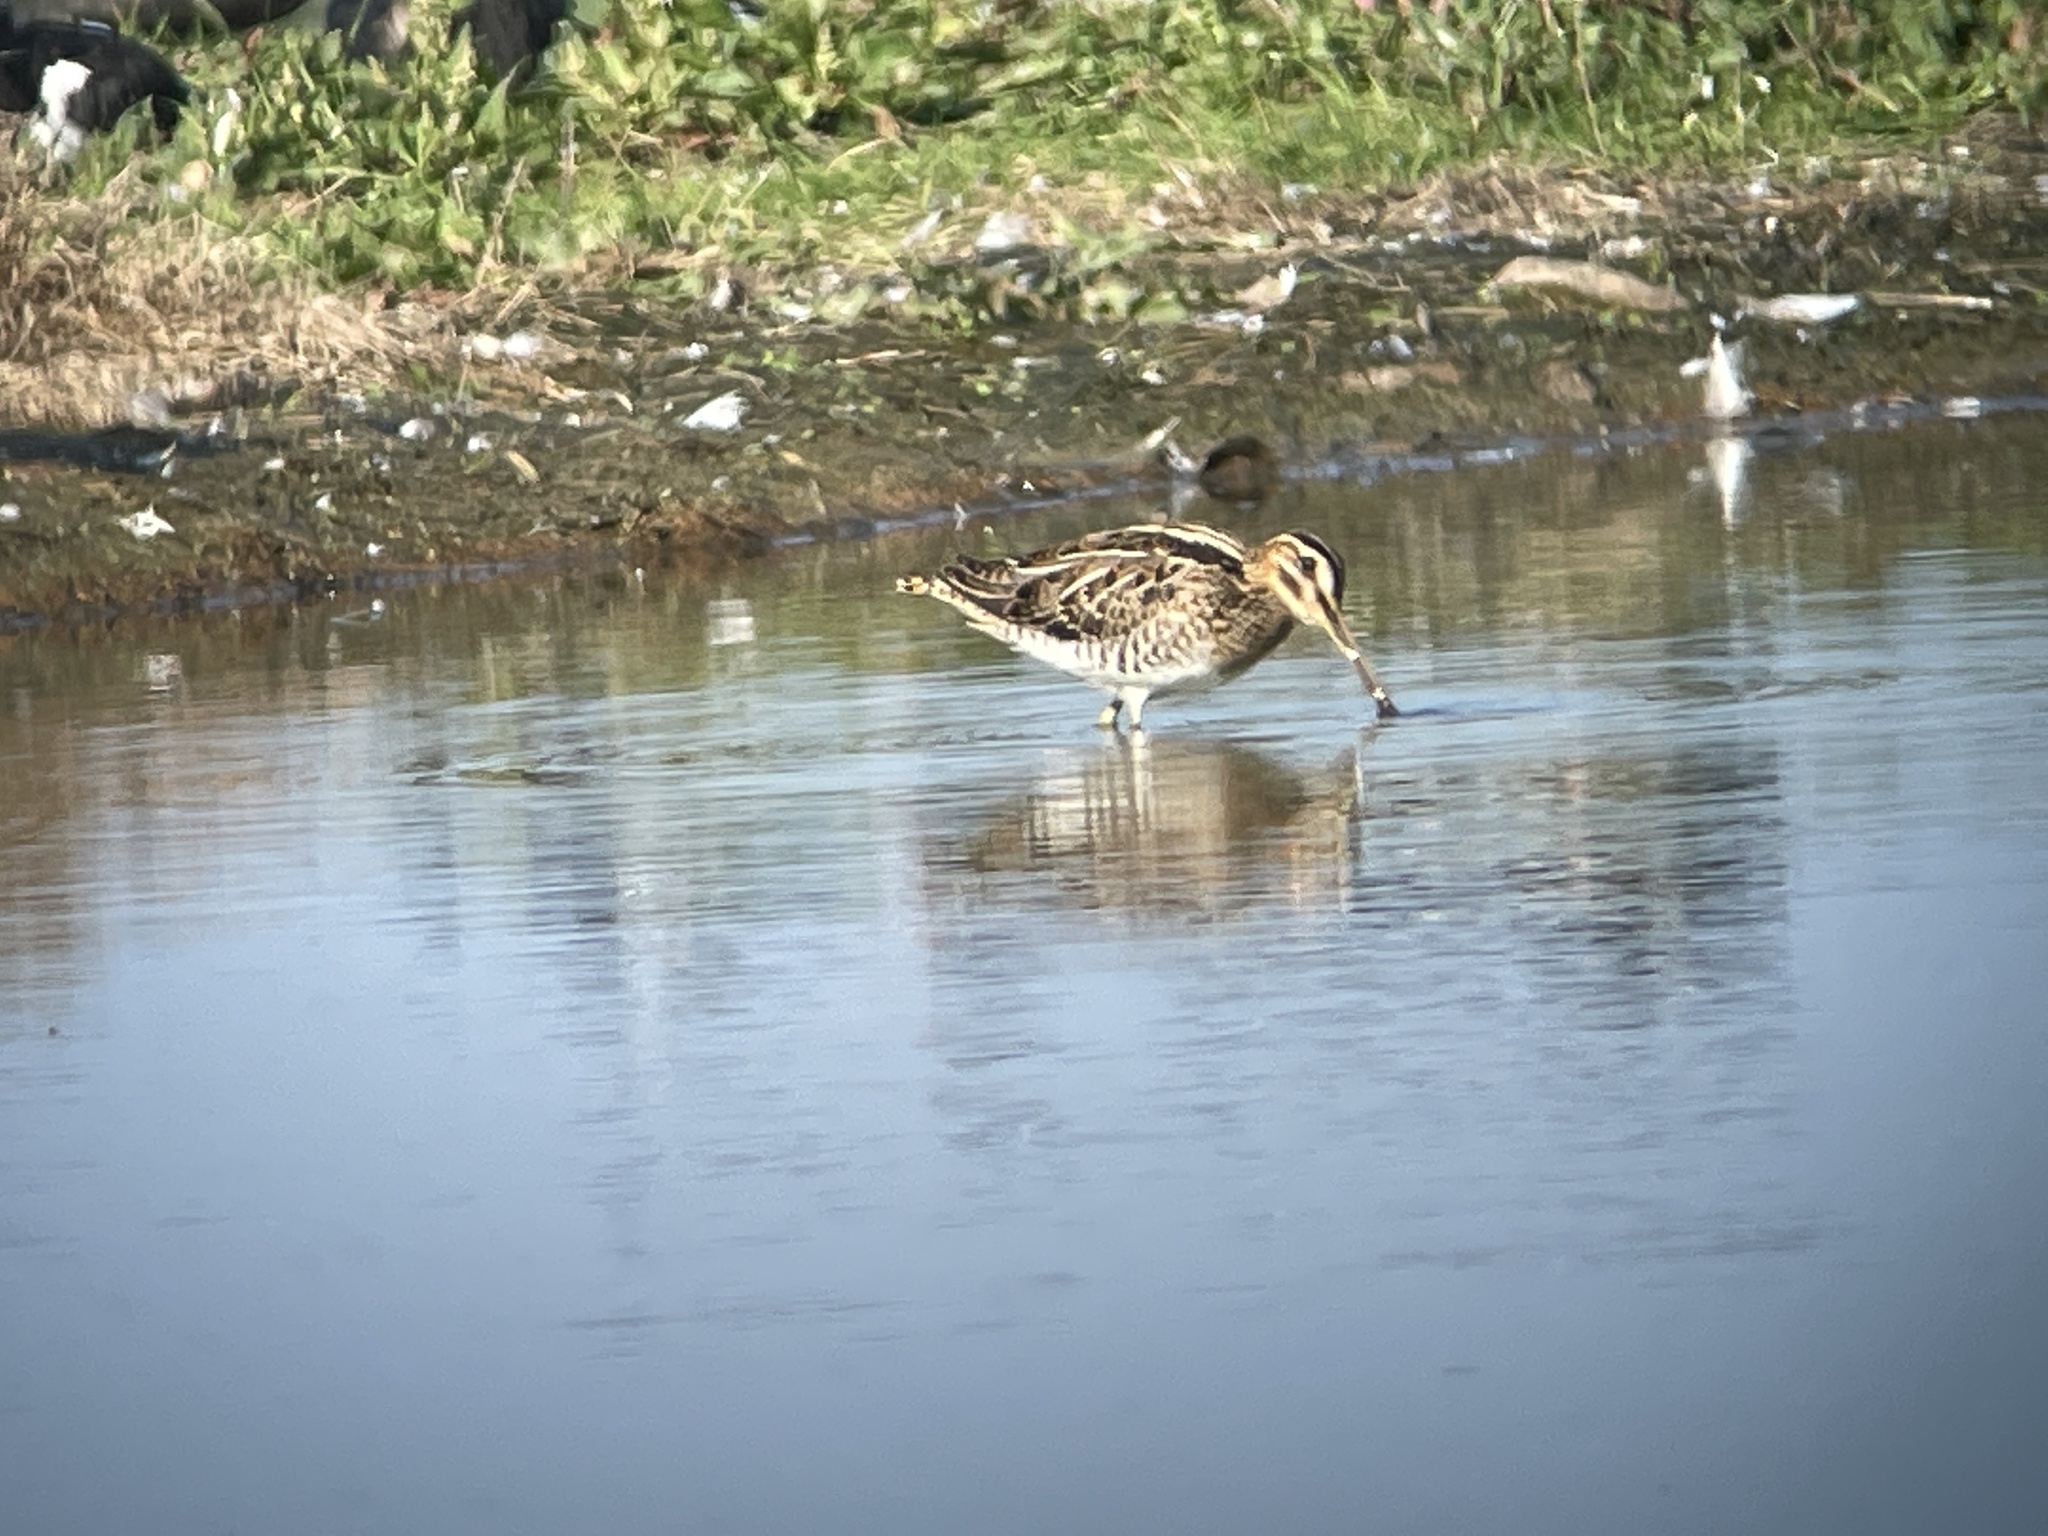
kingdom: Animalia
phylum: Chordata
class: Aves
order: Charadriiformes
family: Scolopacidae
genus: Gallinago
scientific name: Gallinago gallinago
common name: Common snipe
